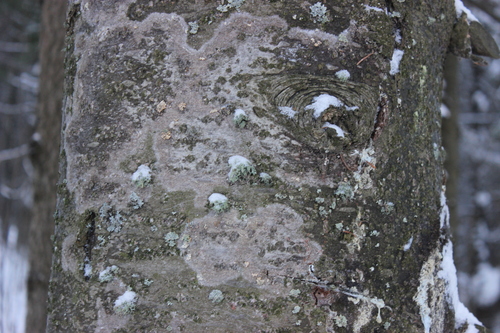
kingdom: Fungi
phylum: Ascomycota
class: Lecanoromycetes
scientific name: Lecanoromycetes
